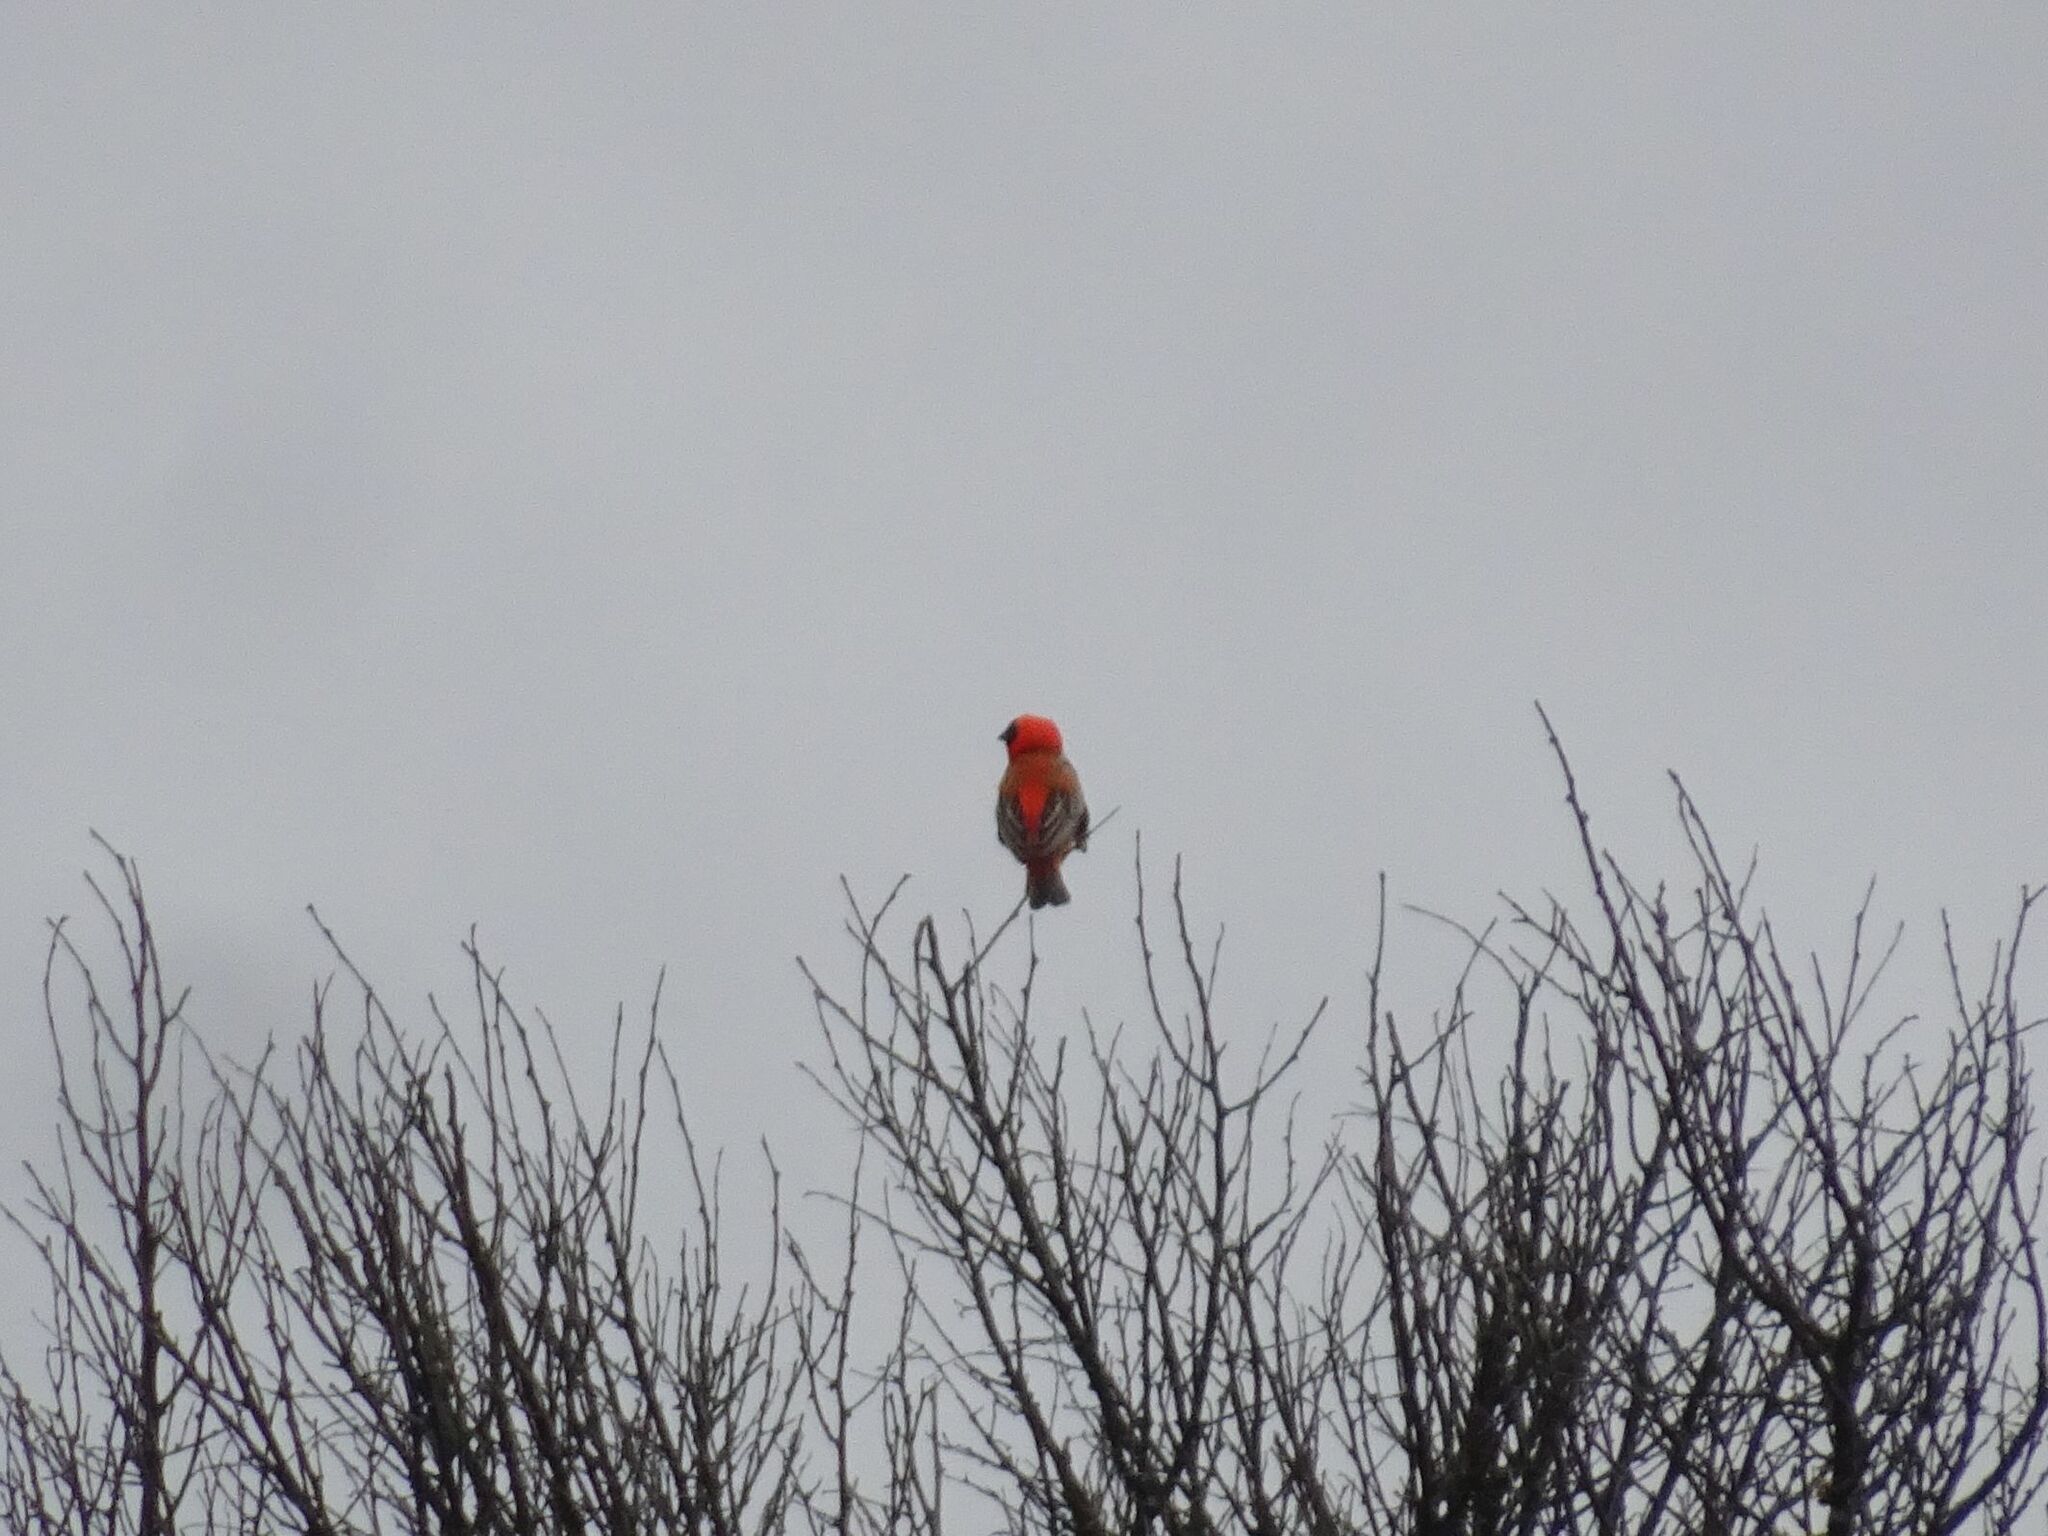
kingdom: Animalia
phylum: Chordata
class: Aves
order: Passeriformes
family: Ploceidae
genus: Euplectes
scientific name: Euplectes orix
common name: Southern red bishop
